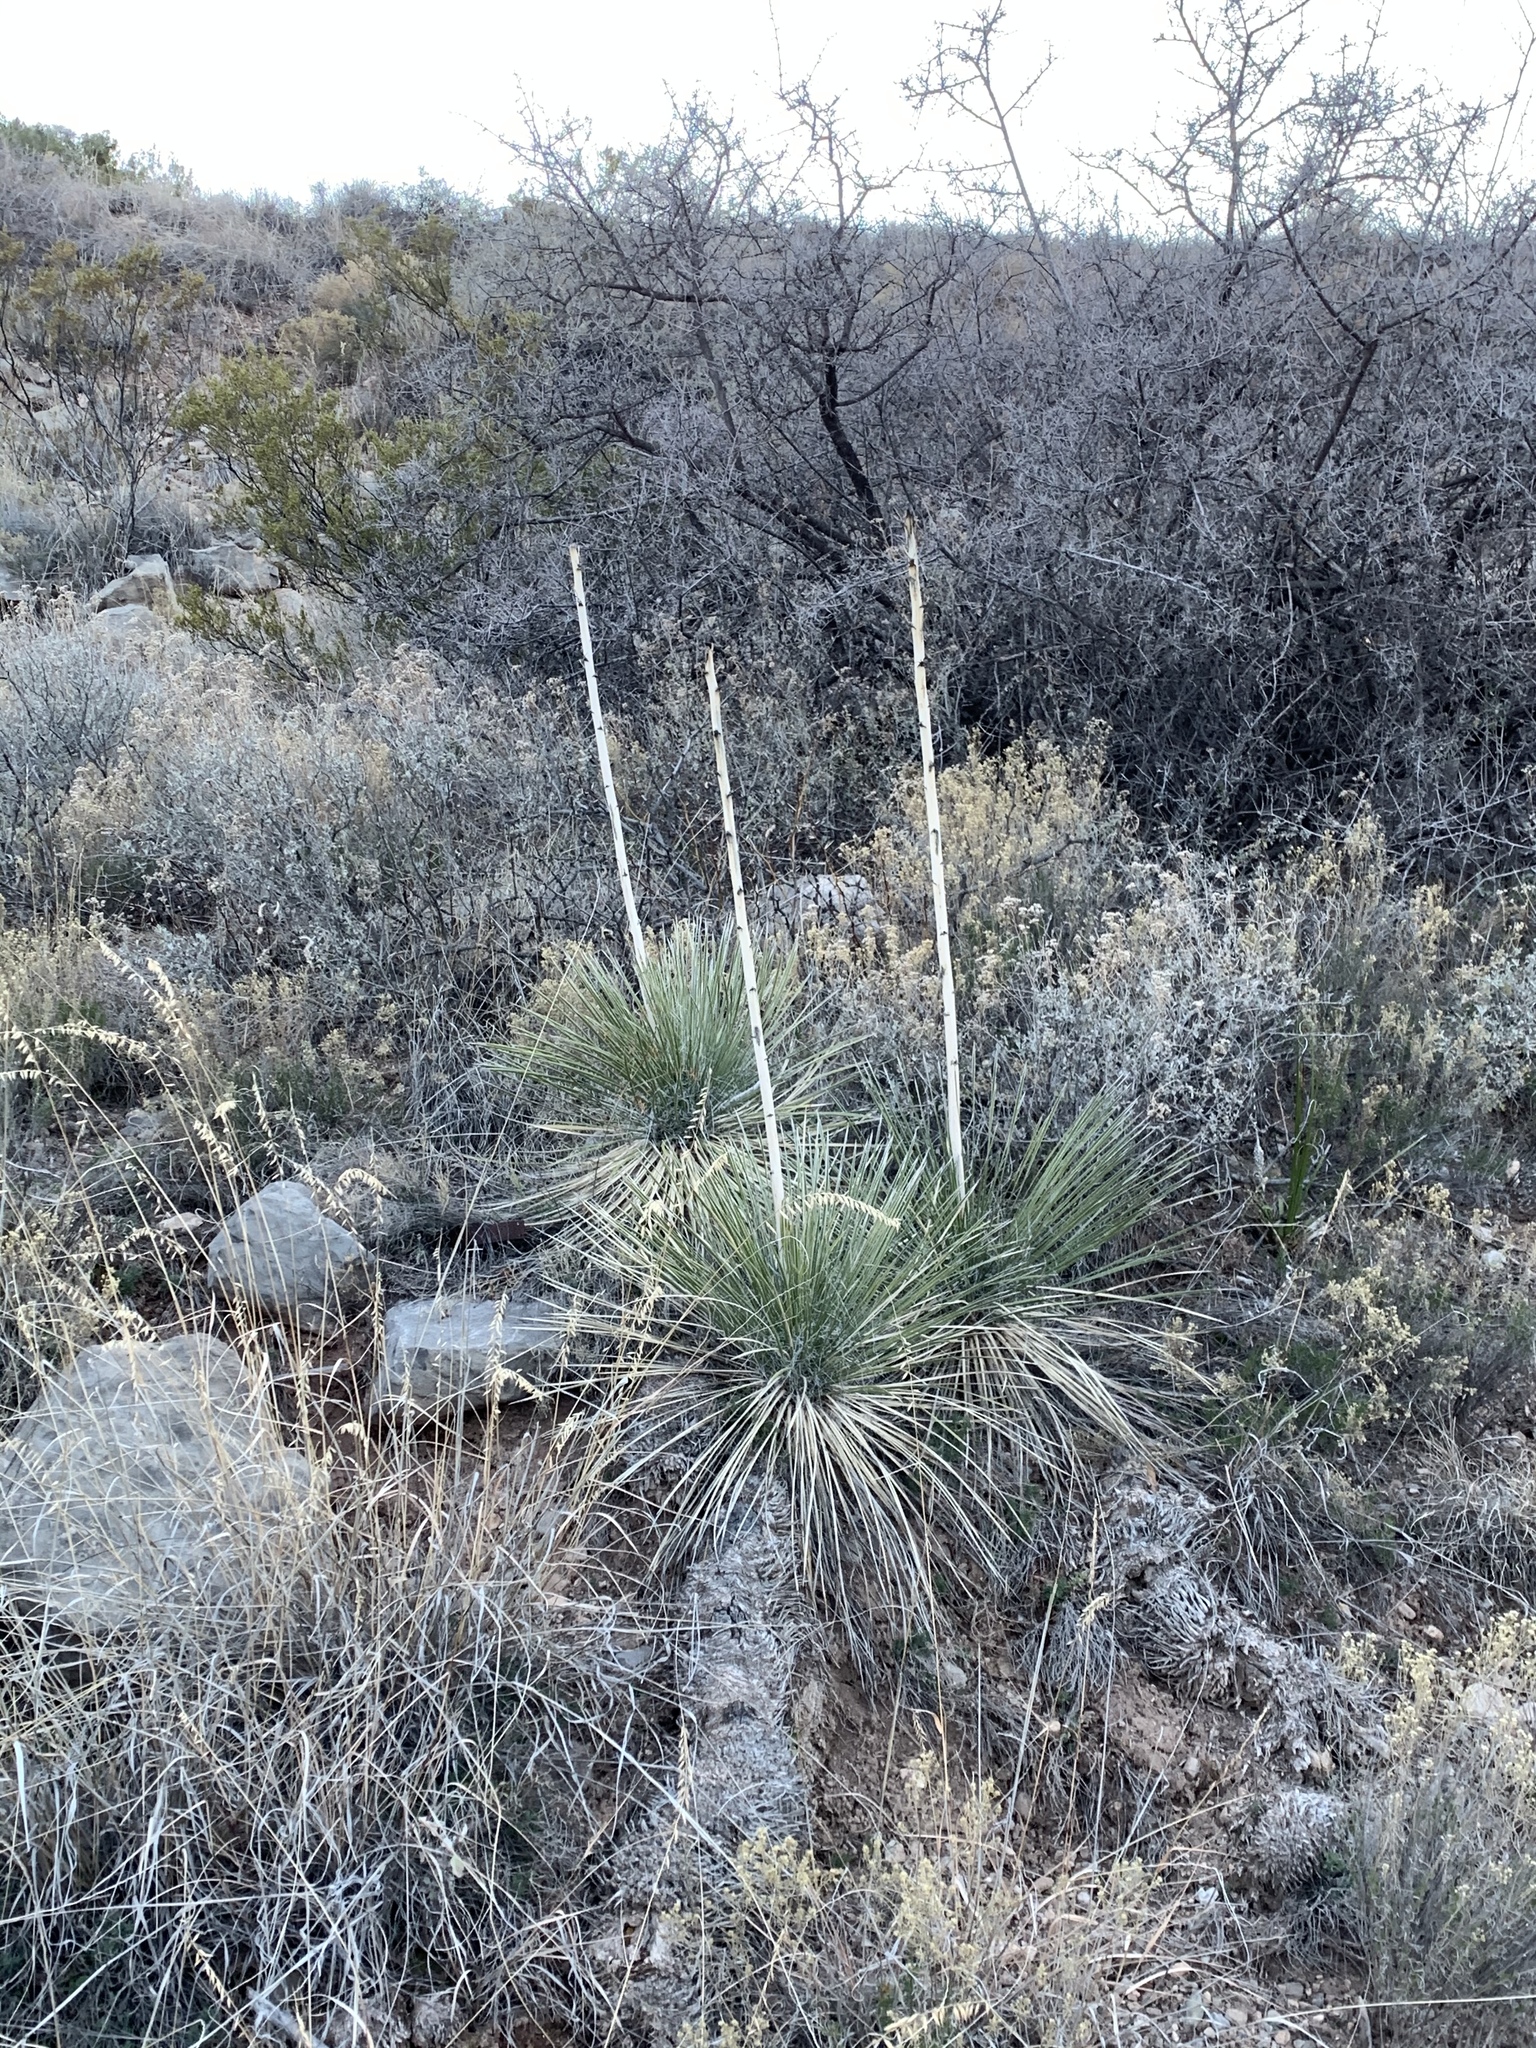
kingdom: Plantae
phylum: Tracheophyta
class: Liliopsida
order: Asparagales
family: Asparagaceae
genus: Yucca
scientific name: Yucca elata
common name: Palmella
